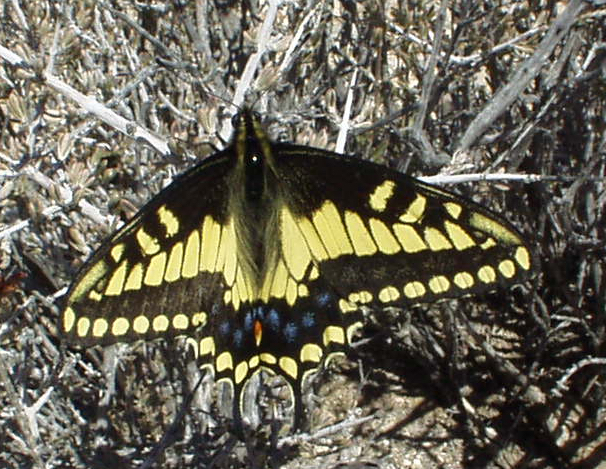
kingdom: Animalia
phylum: Arthropoda
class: Insecta
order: Lepidoptera
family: Papilionidae
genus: Papilio
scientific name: Papilio polyxenes
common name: Black swallowtail
